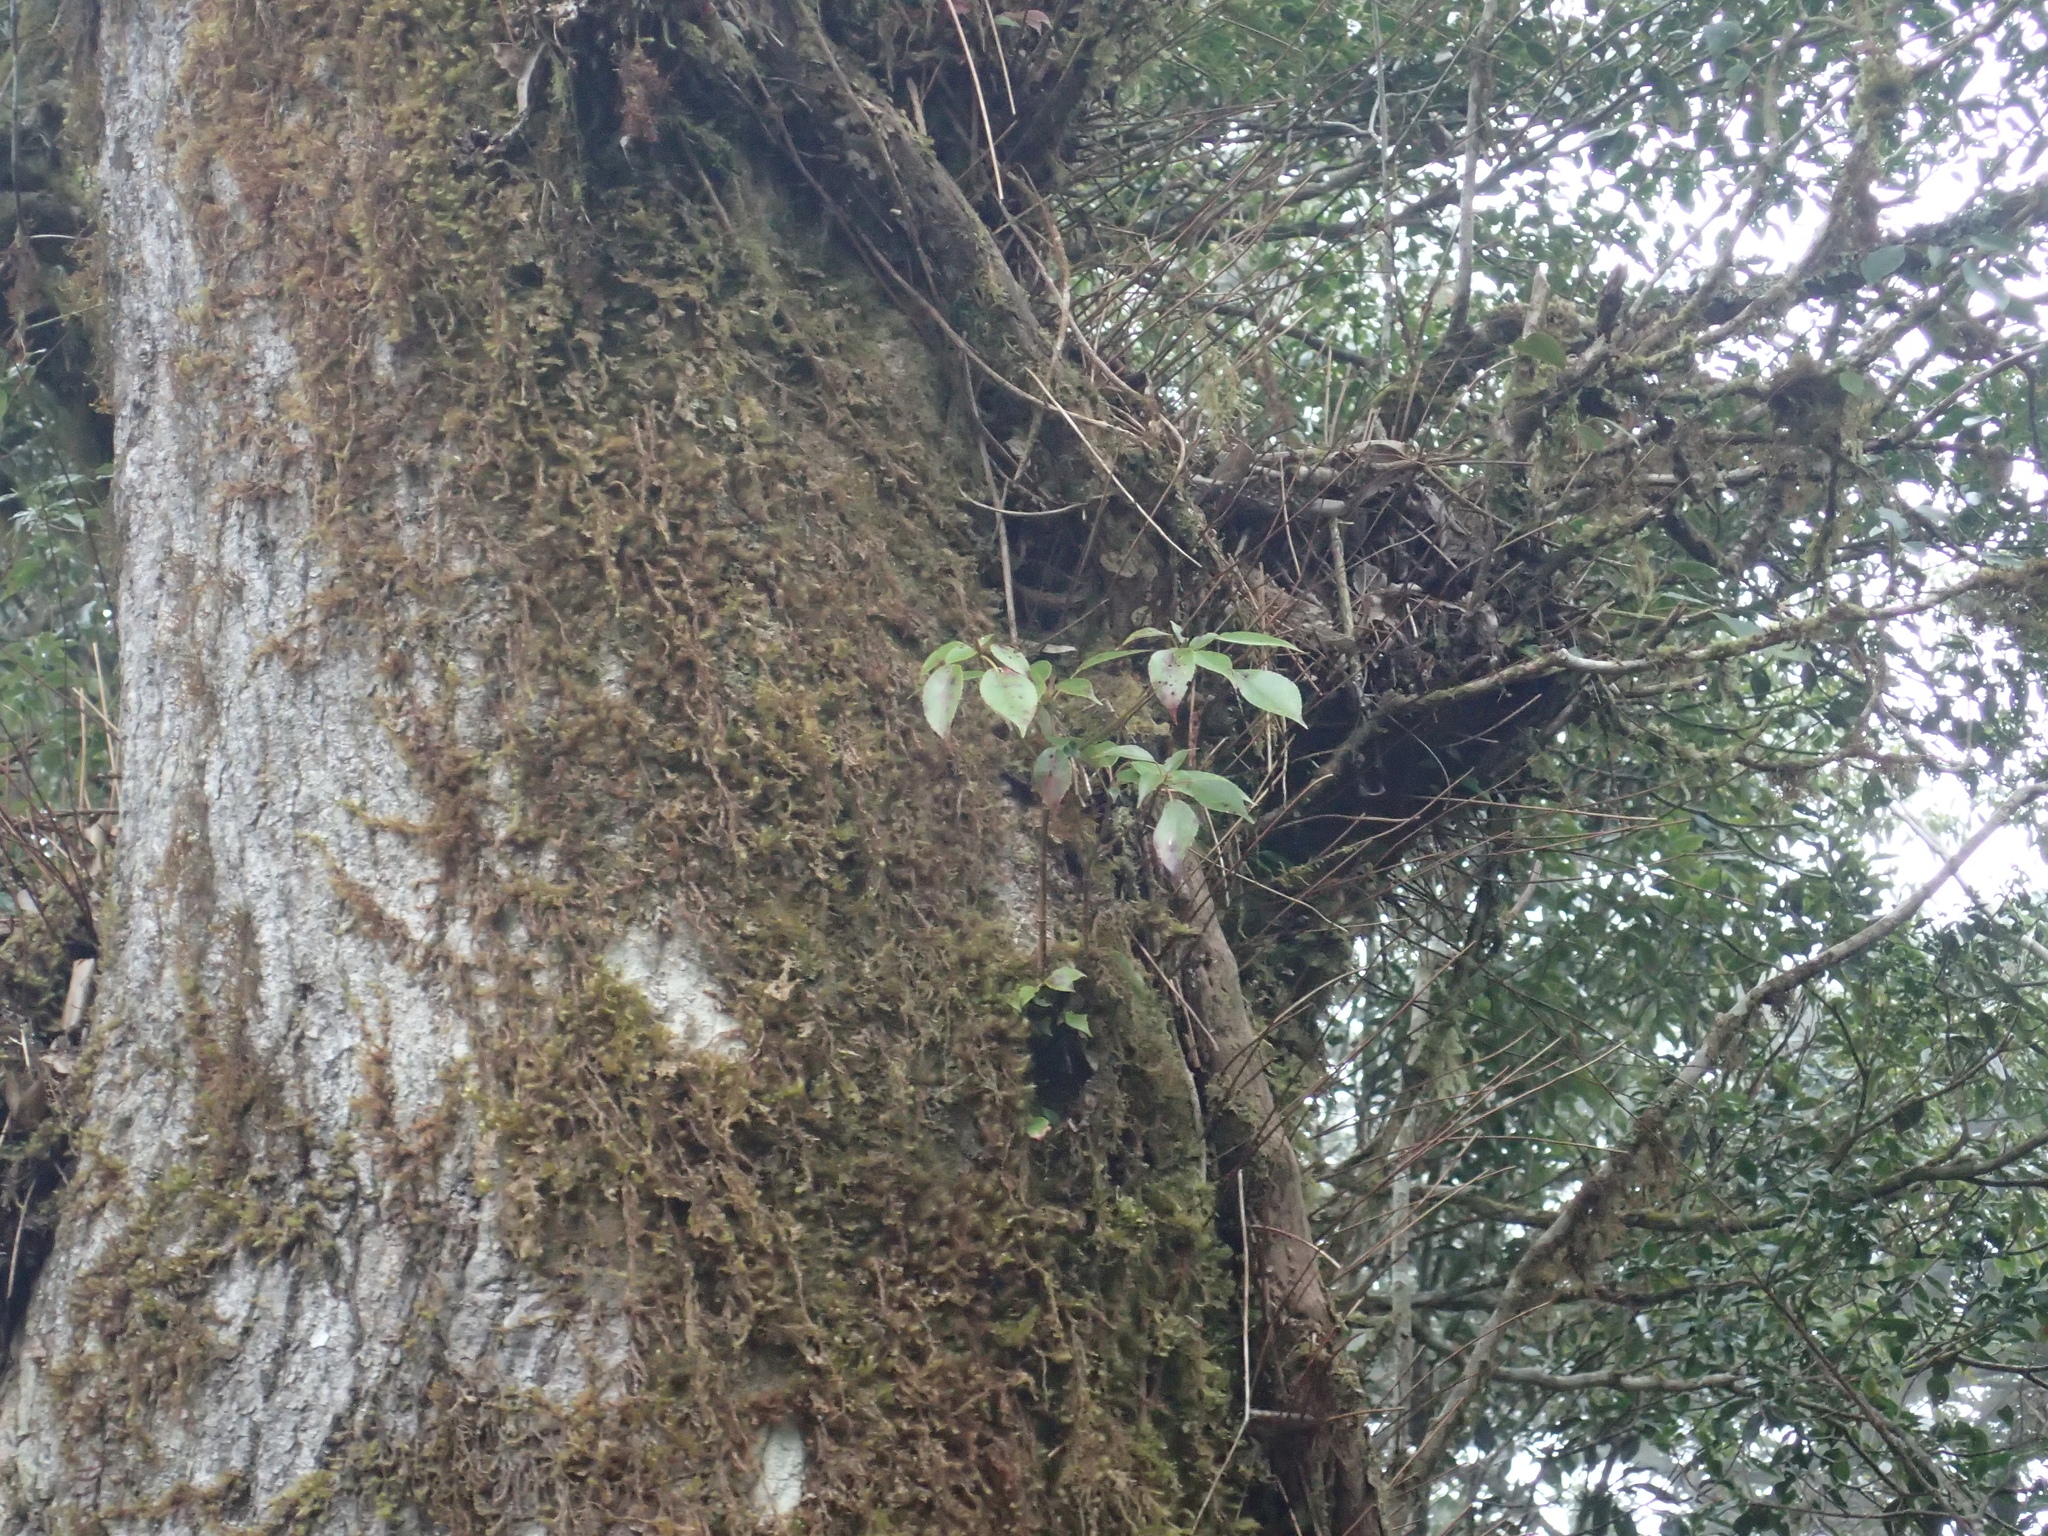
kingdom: Plantae
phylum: Tracheophyta
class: Magnoliopsida
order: Trochodendrales
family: Trochodendraceae
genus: Trochodendron
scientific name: Trochodendron aralioides
